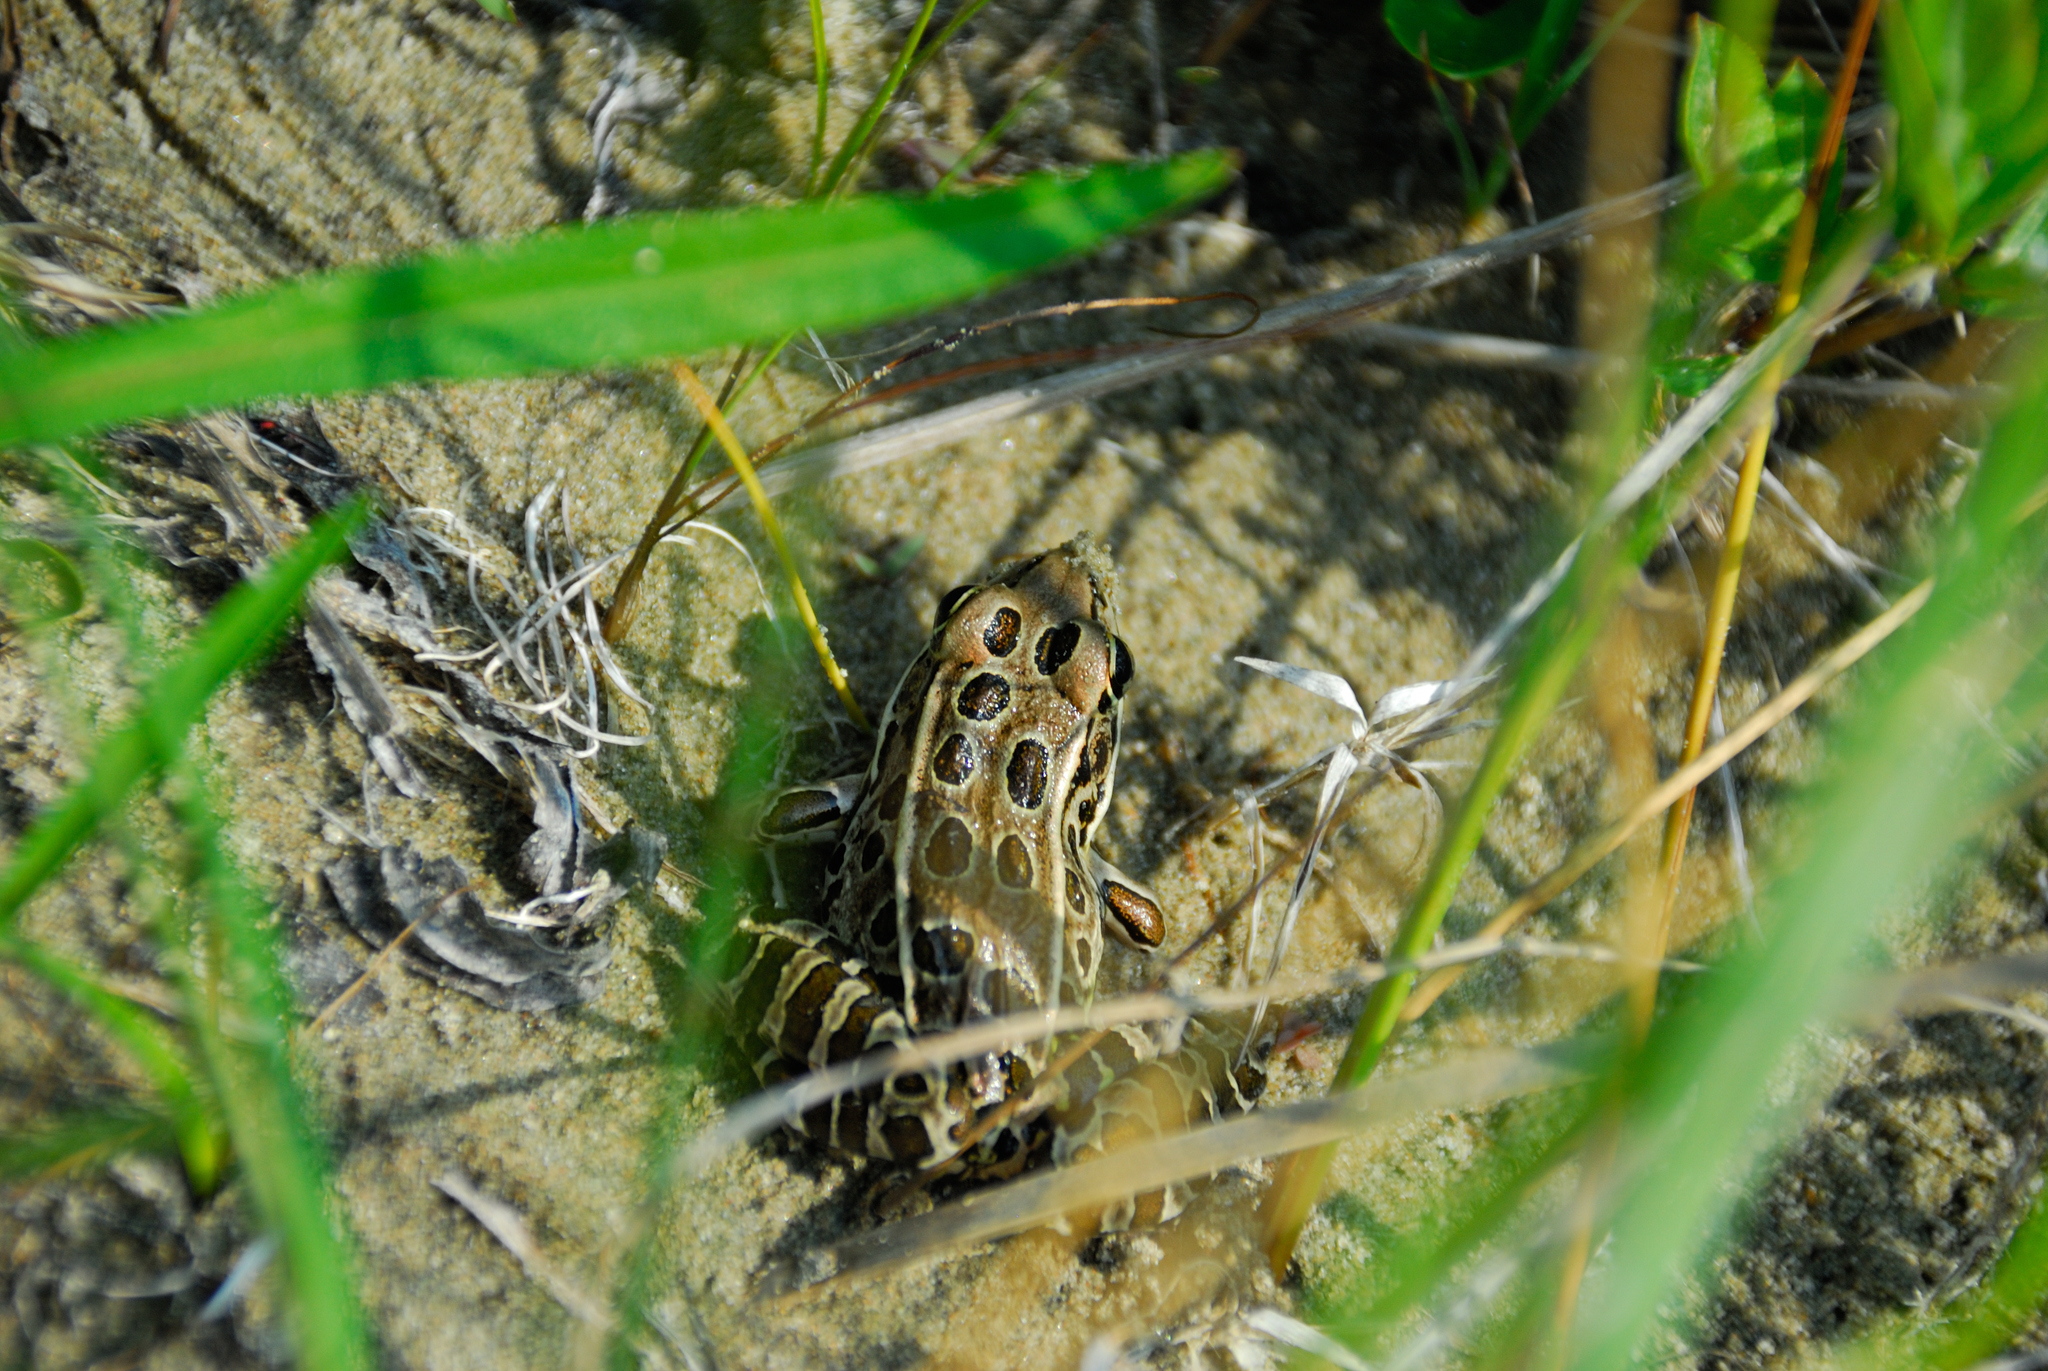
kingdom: Animalia
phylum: Chordata
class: Amphibia
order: Anura
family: Ranidae
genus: Lithobates
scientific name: Lithobates pipiens
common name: Northern leopard frog
